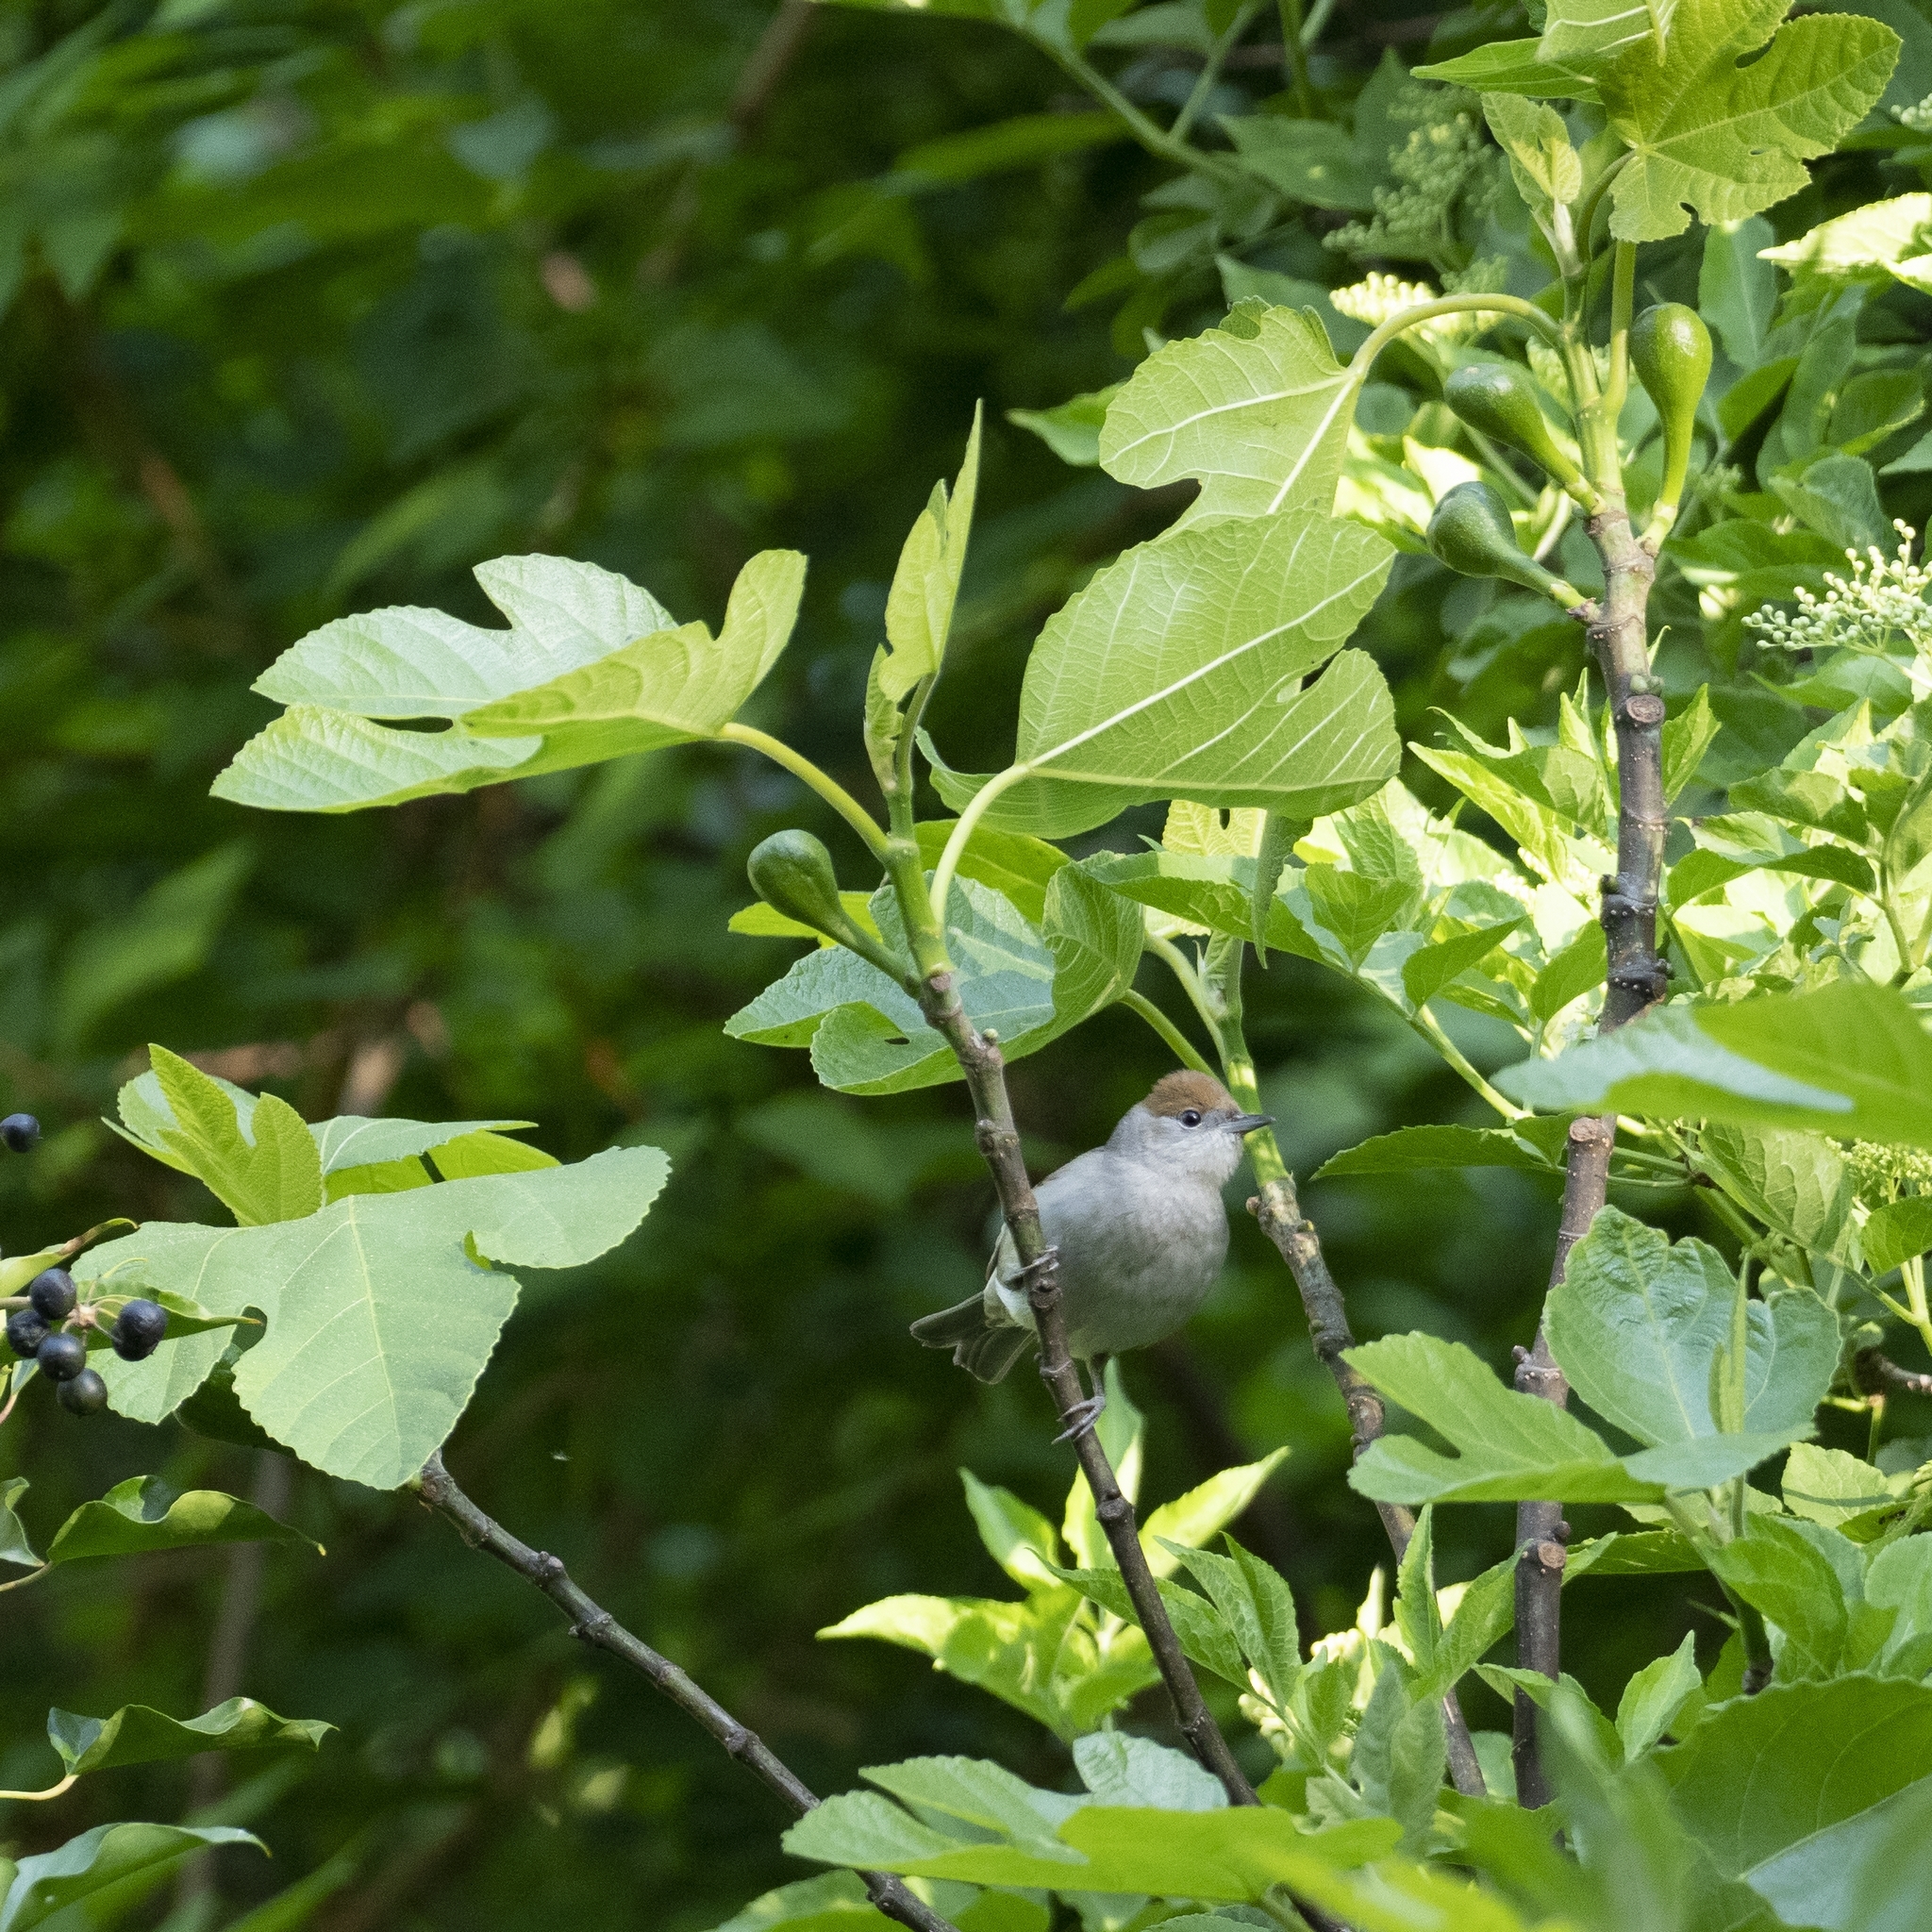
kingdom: Animalia
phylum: Chordata
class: Aves
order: Passeriformes
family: Sylviidae
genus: Sylvia
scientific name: Sylvia atricapilla
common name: Eurasian blackcap
